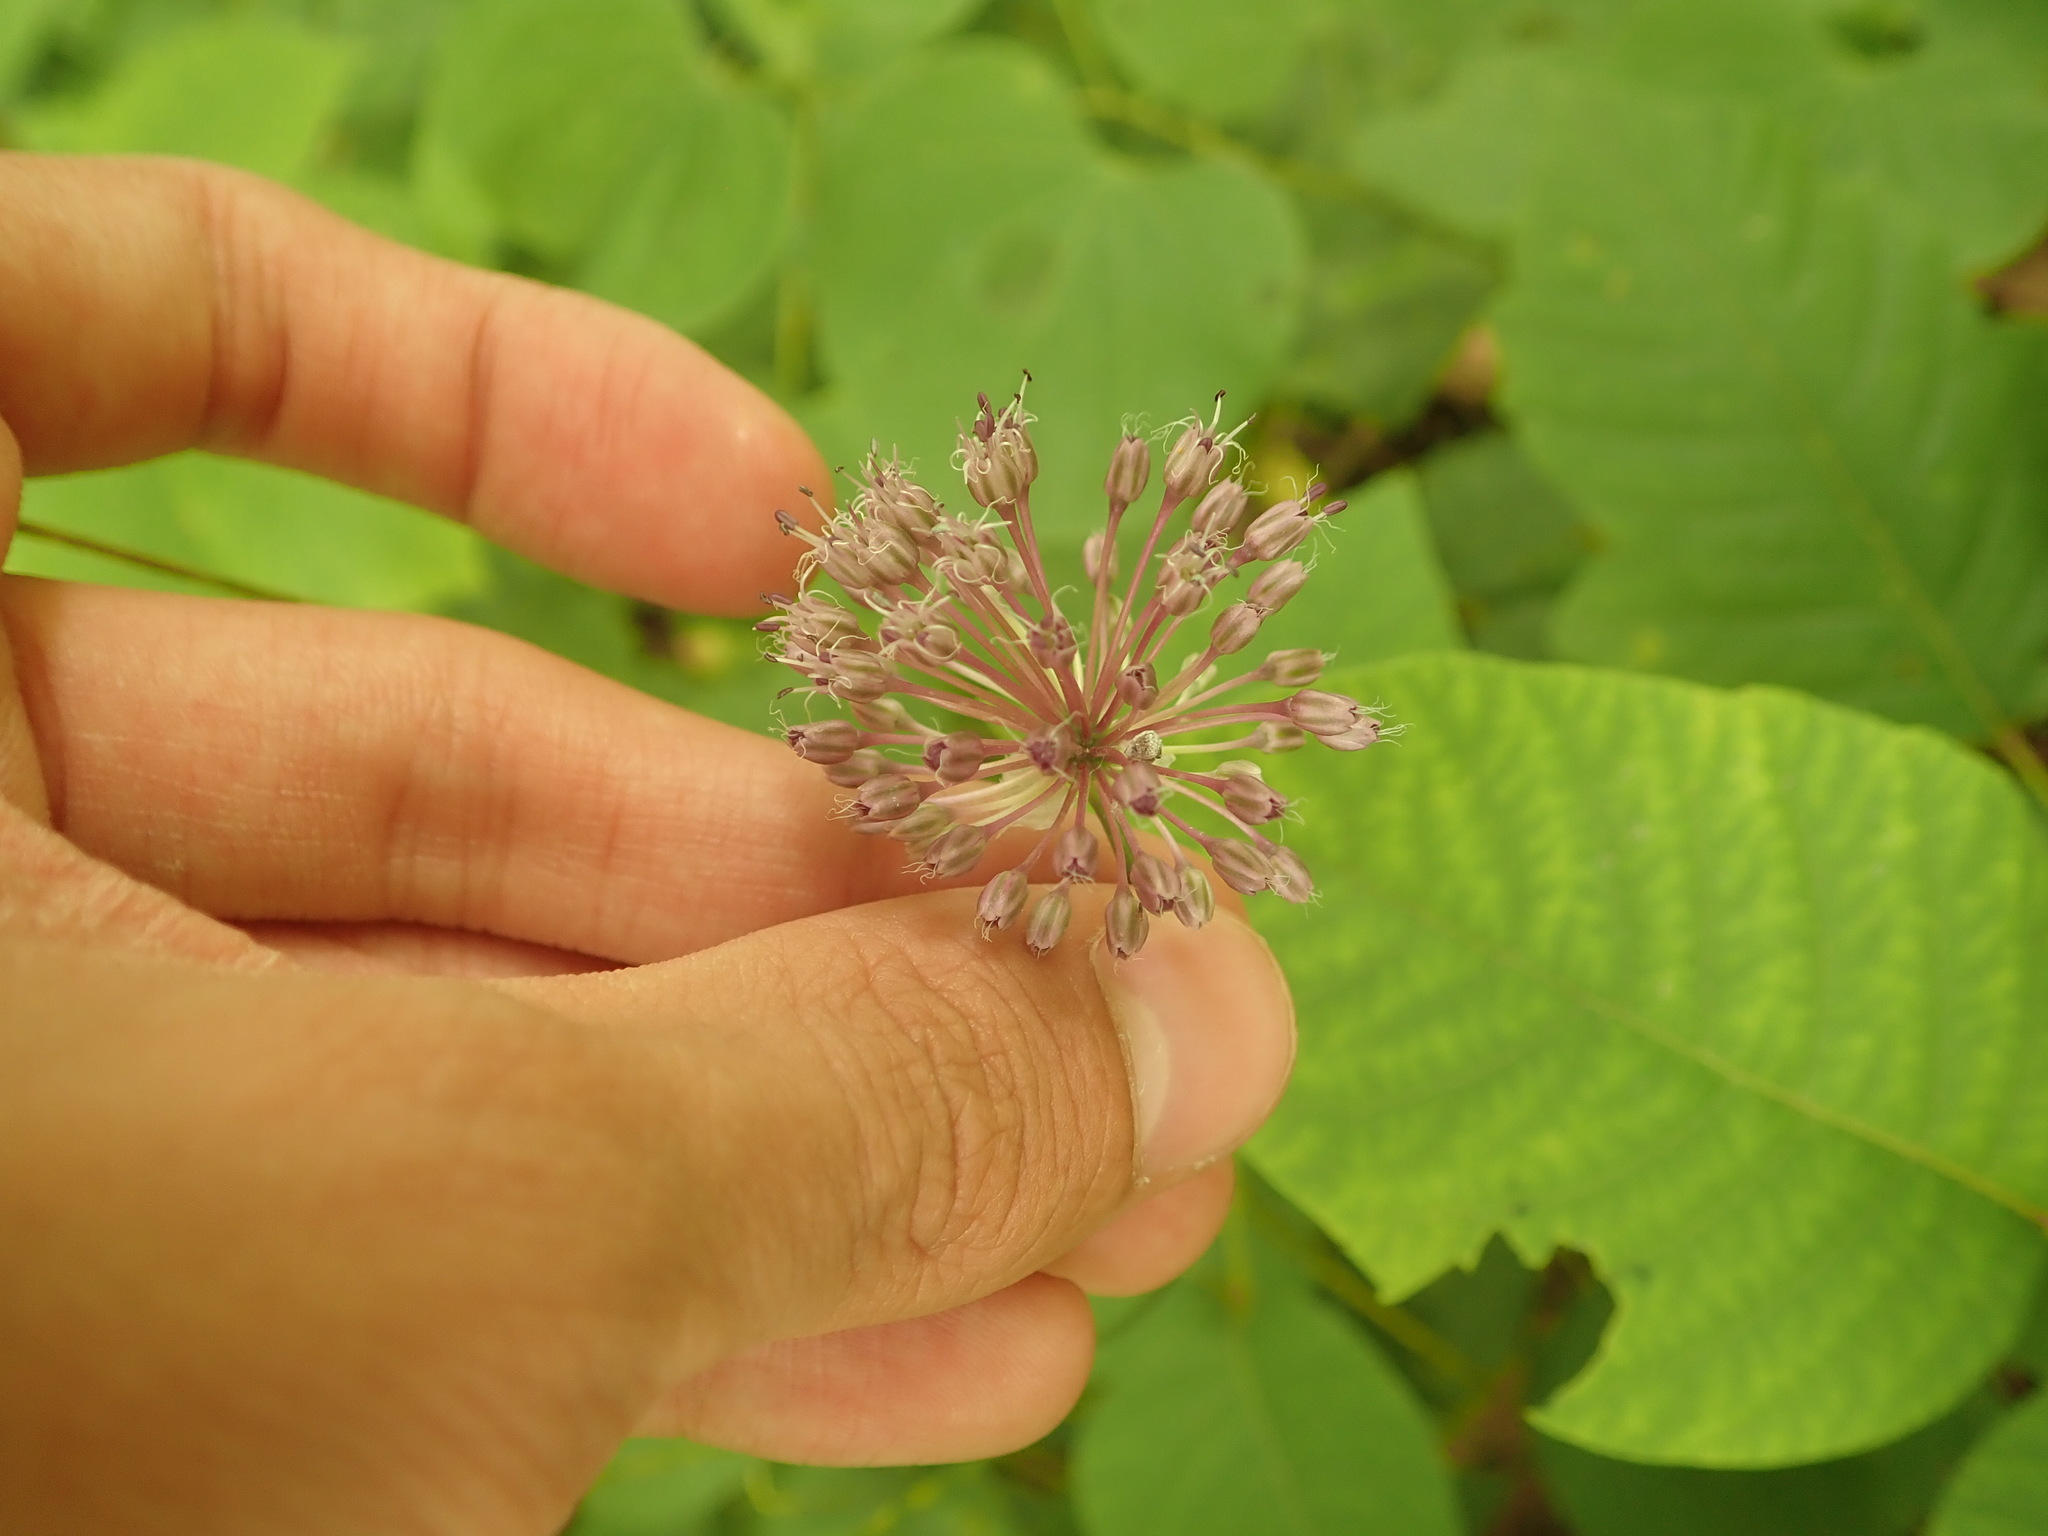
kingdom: Plantae
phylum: Tracheophyta
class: Liliopsida
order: Asparagales
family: Amaryllidaceae
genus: Allium
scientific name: Allium vineale
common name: Crow garlic
